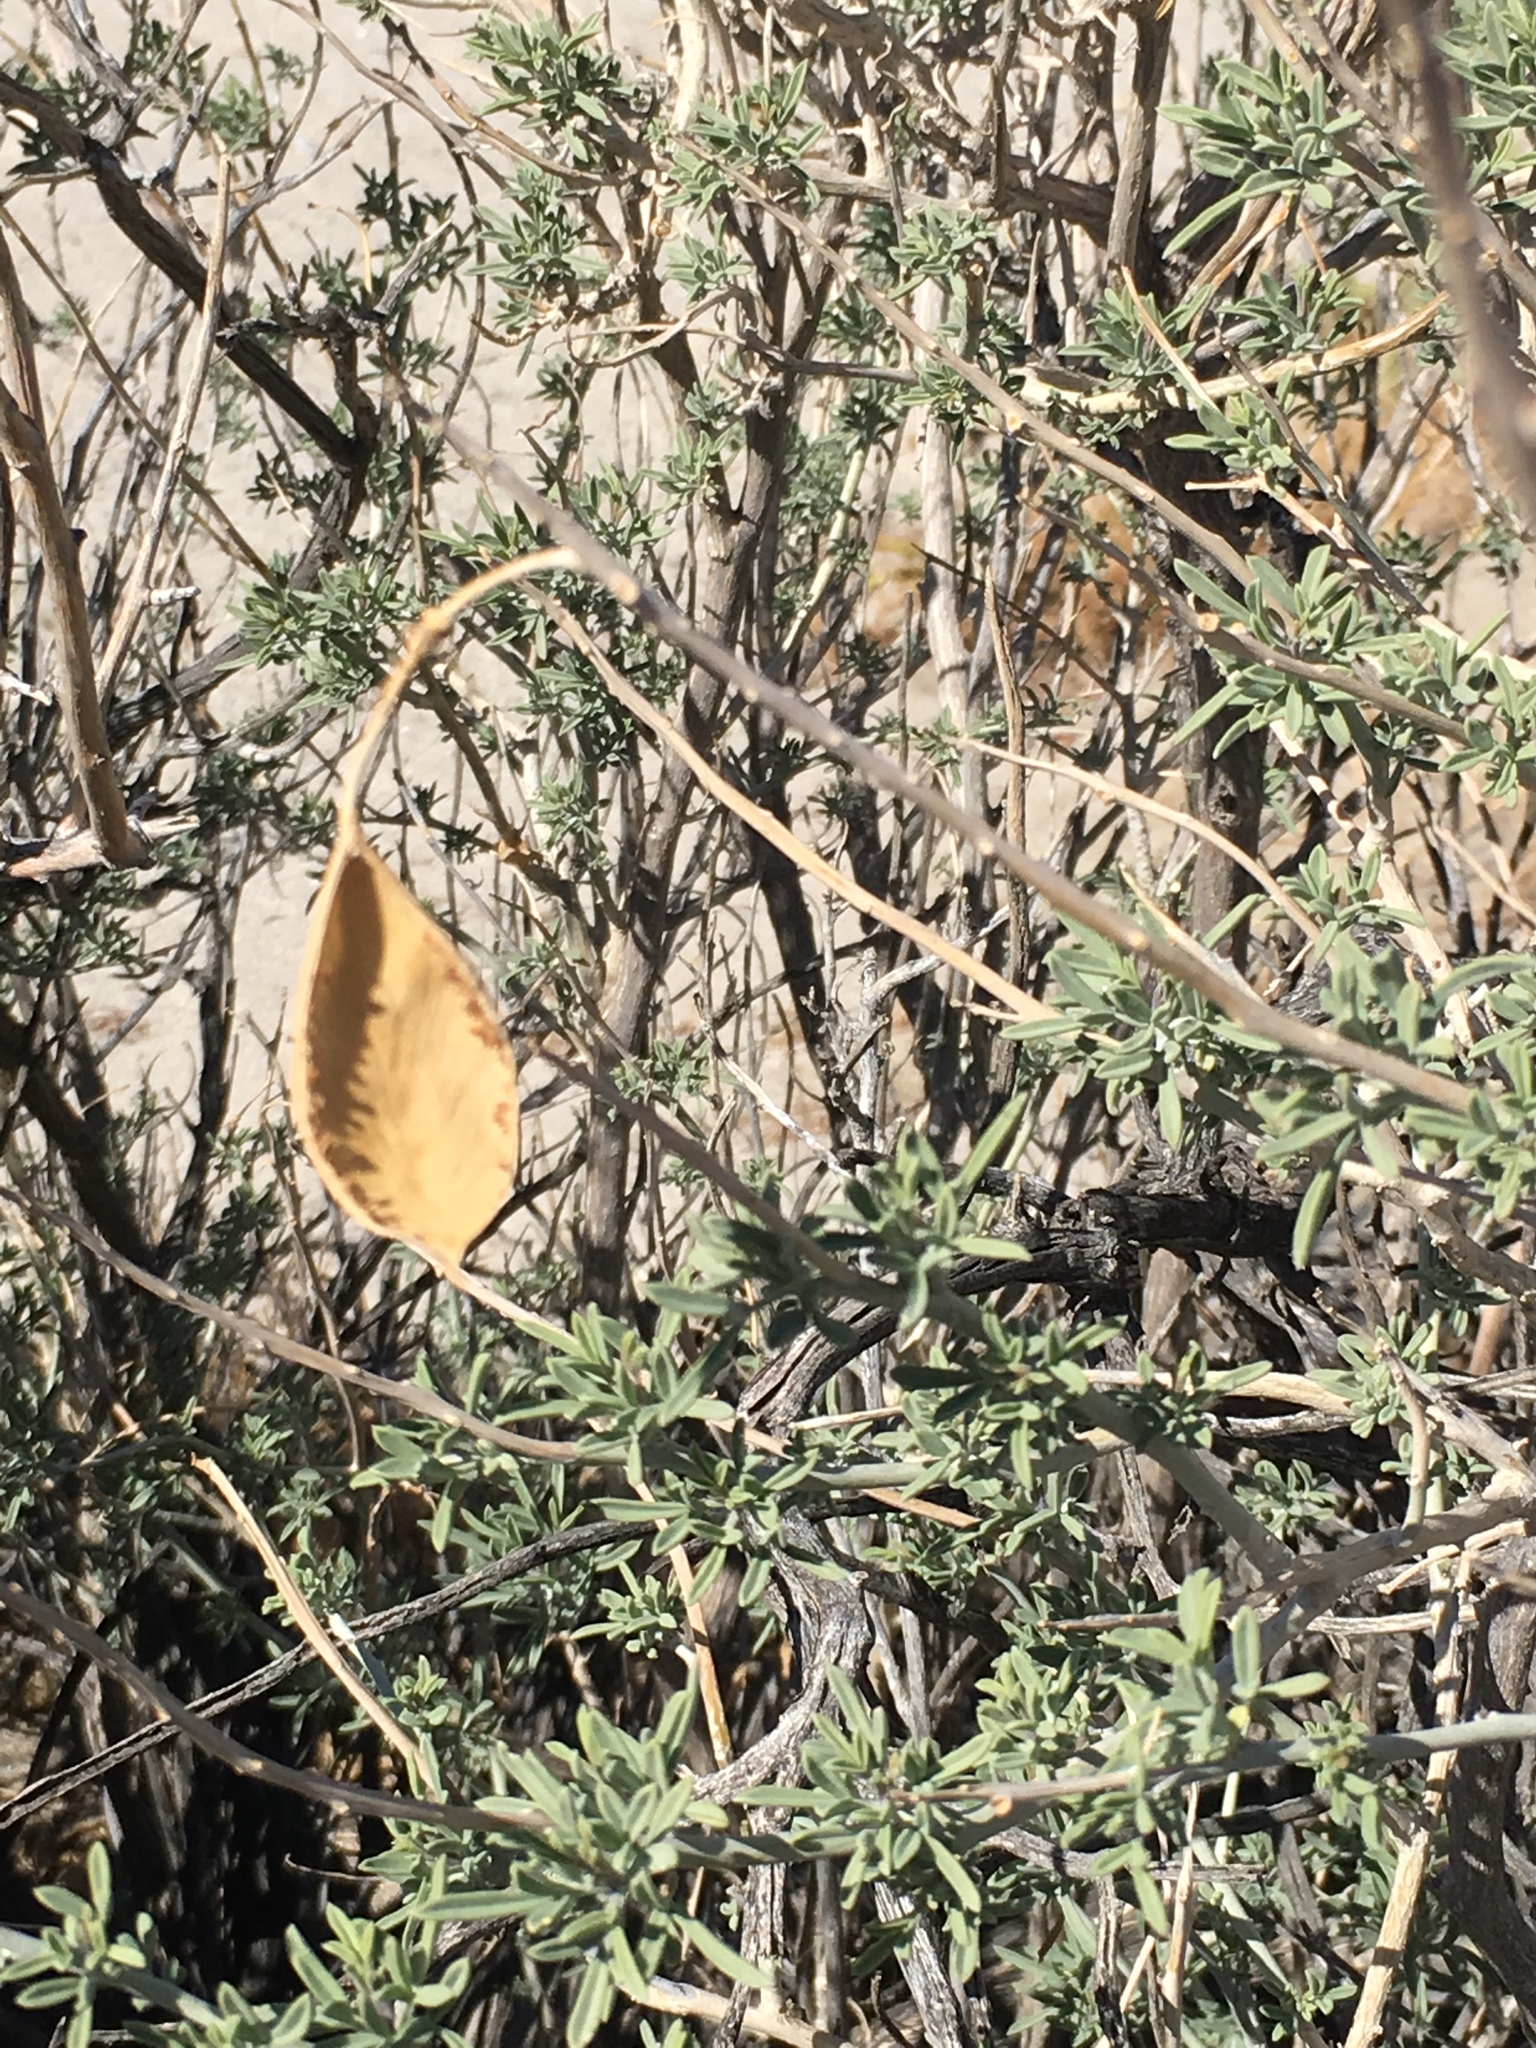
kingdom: Plantae
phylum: Tracheophyta
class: Magnoliopsida
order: Brassicales
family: Cleomaceae
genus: Cleomella
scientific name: Cleomella arborea
